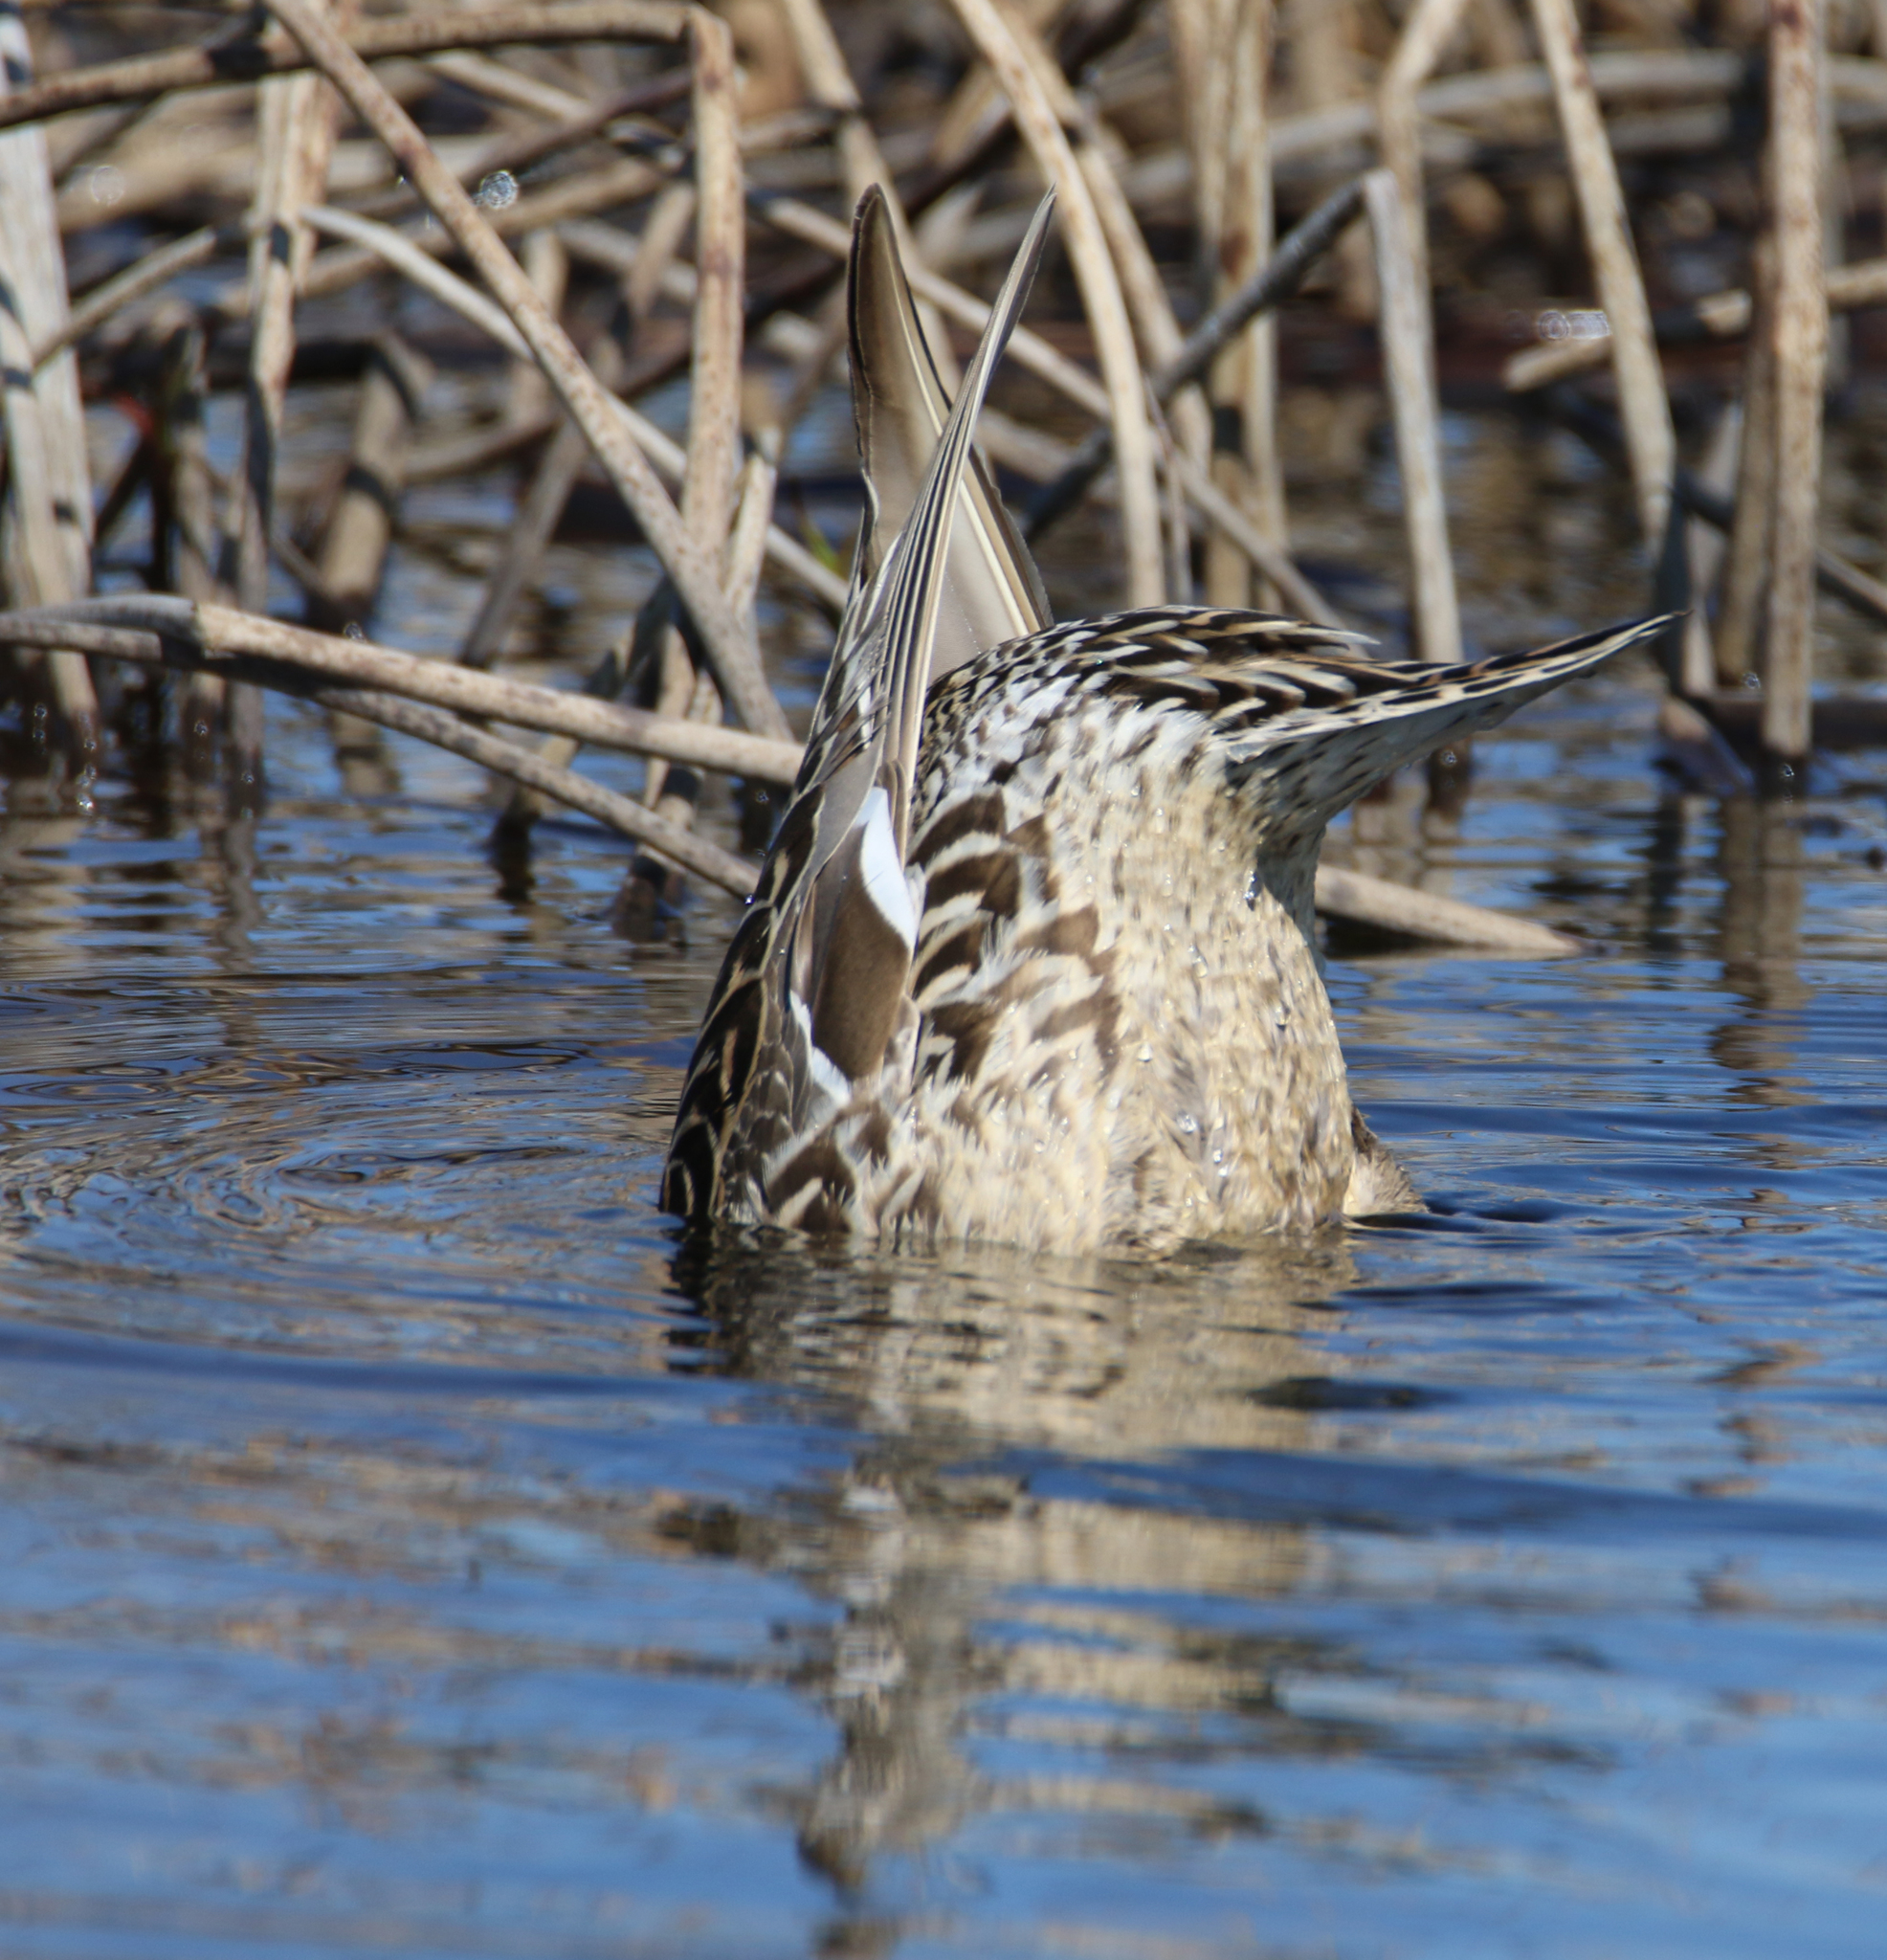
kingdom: Animalia
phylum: Chordata
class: Aves
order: Anseriformes
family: Anatidae
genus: Anas
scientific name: Anas acuta
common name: Northern pintail
